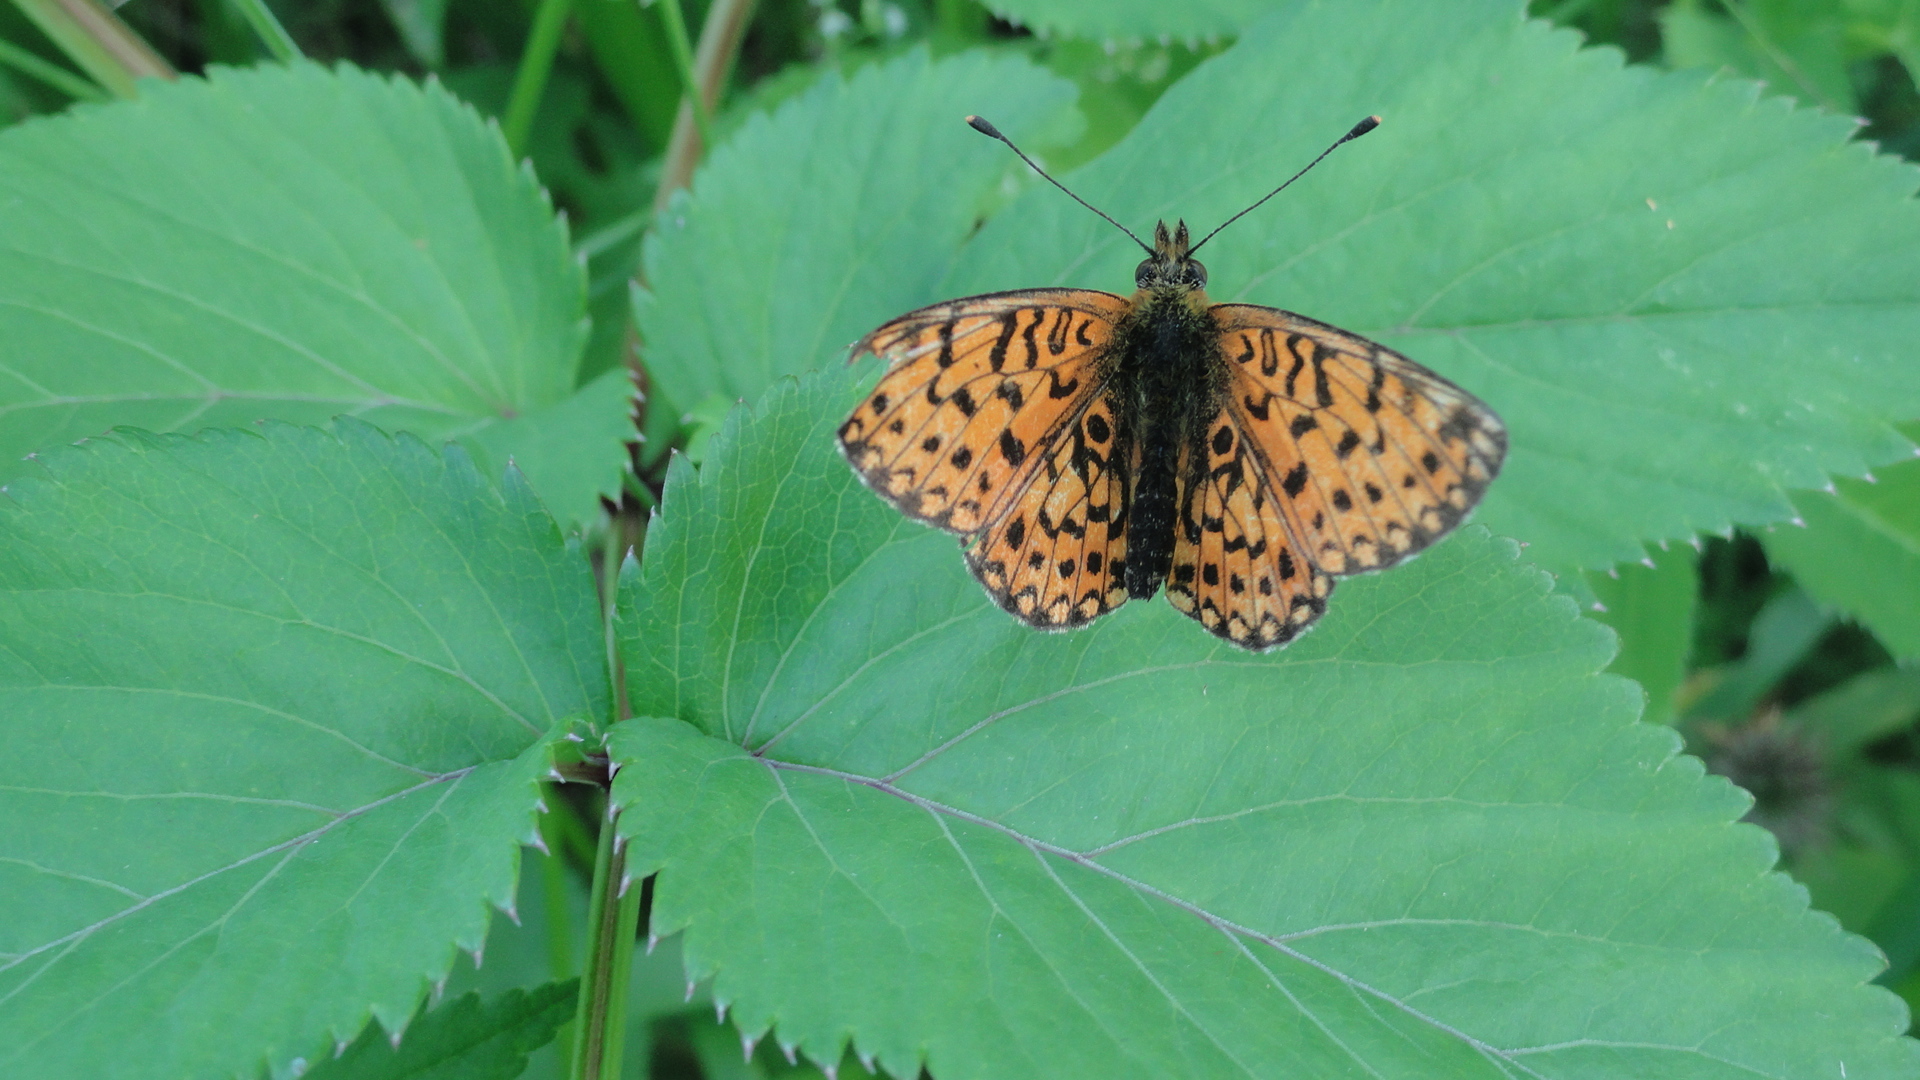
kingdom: Animalia
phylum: Arthropoda
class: Insecta
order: Lepidoptera
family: Nymphalidae
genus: Boloria
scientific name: Boloria selene
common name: Small pearl-bordered fritillary
